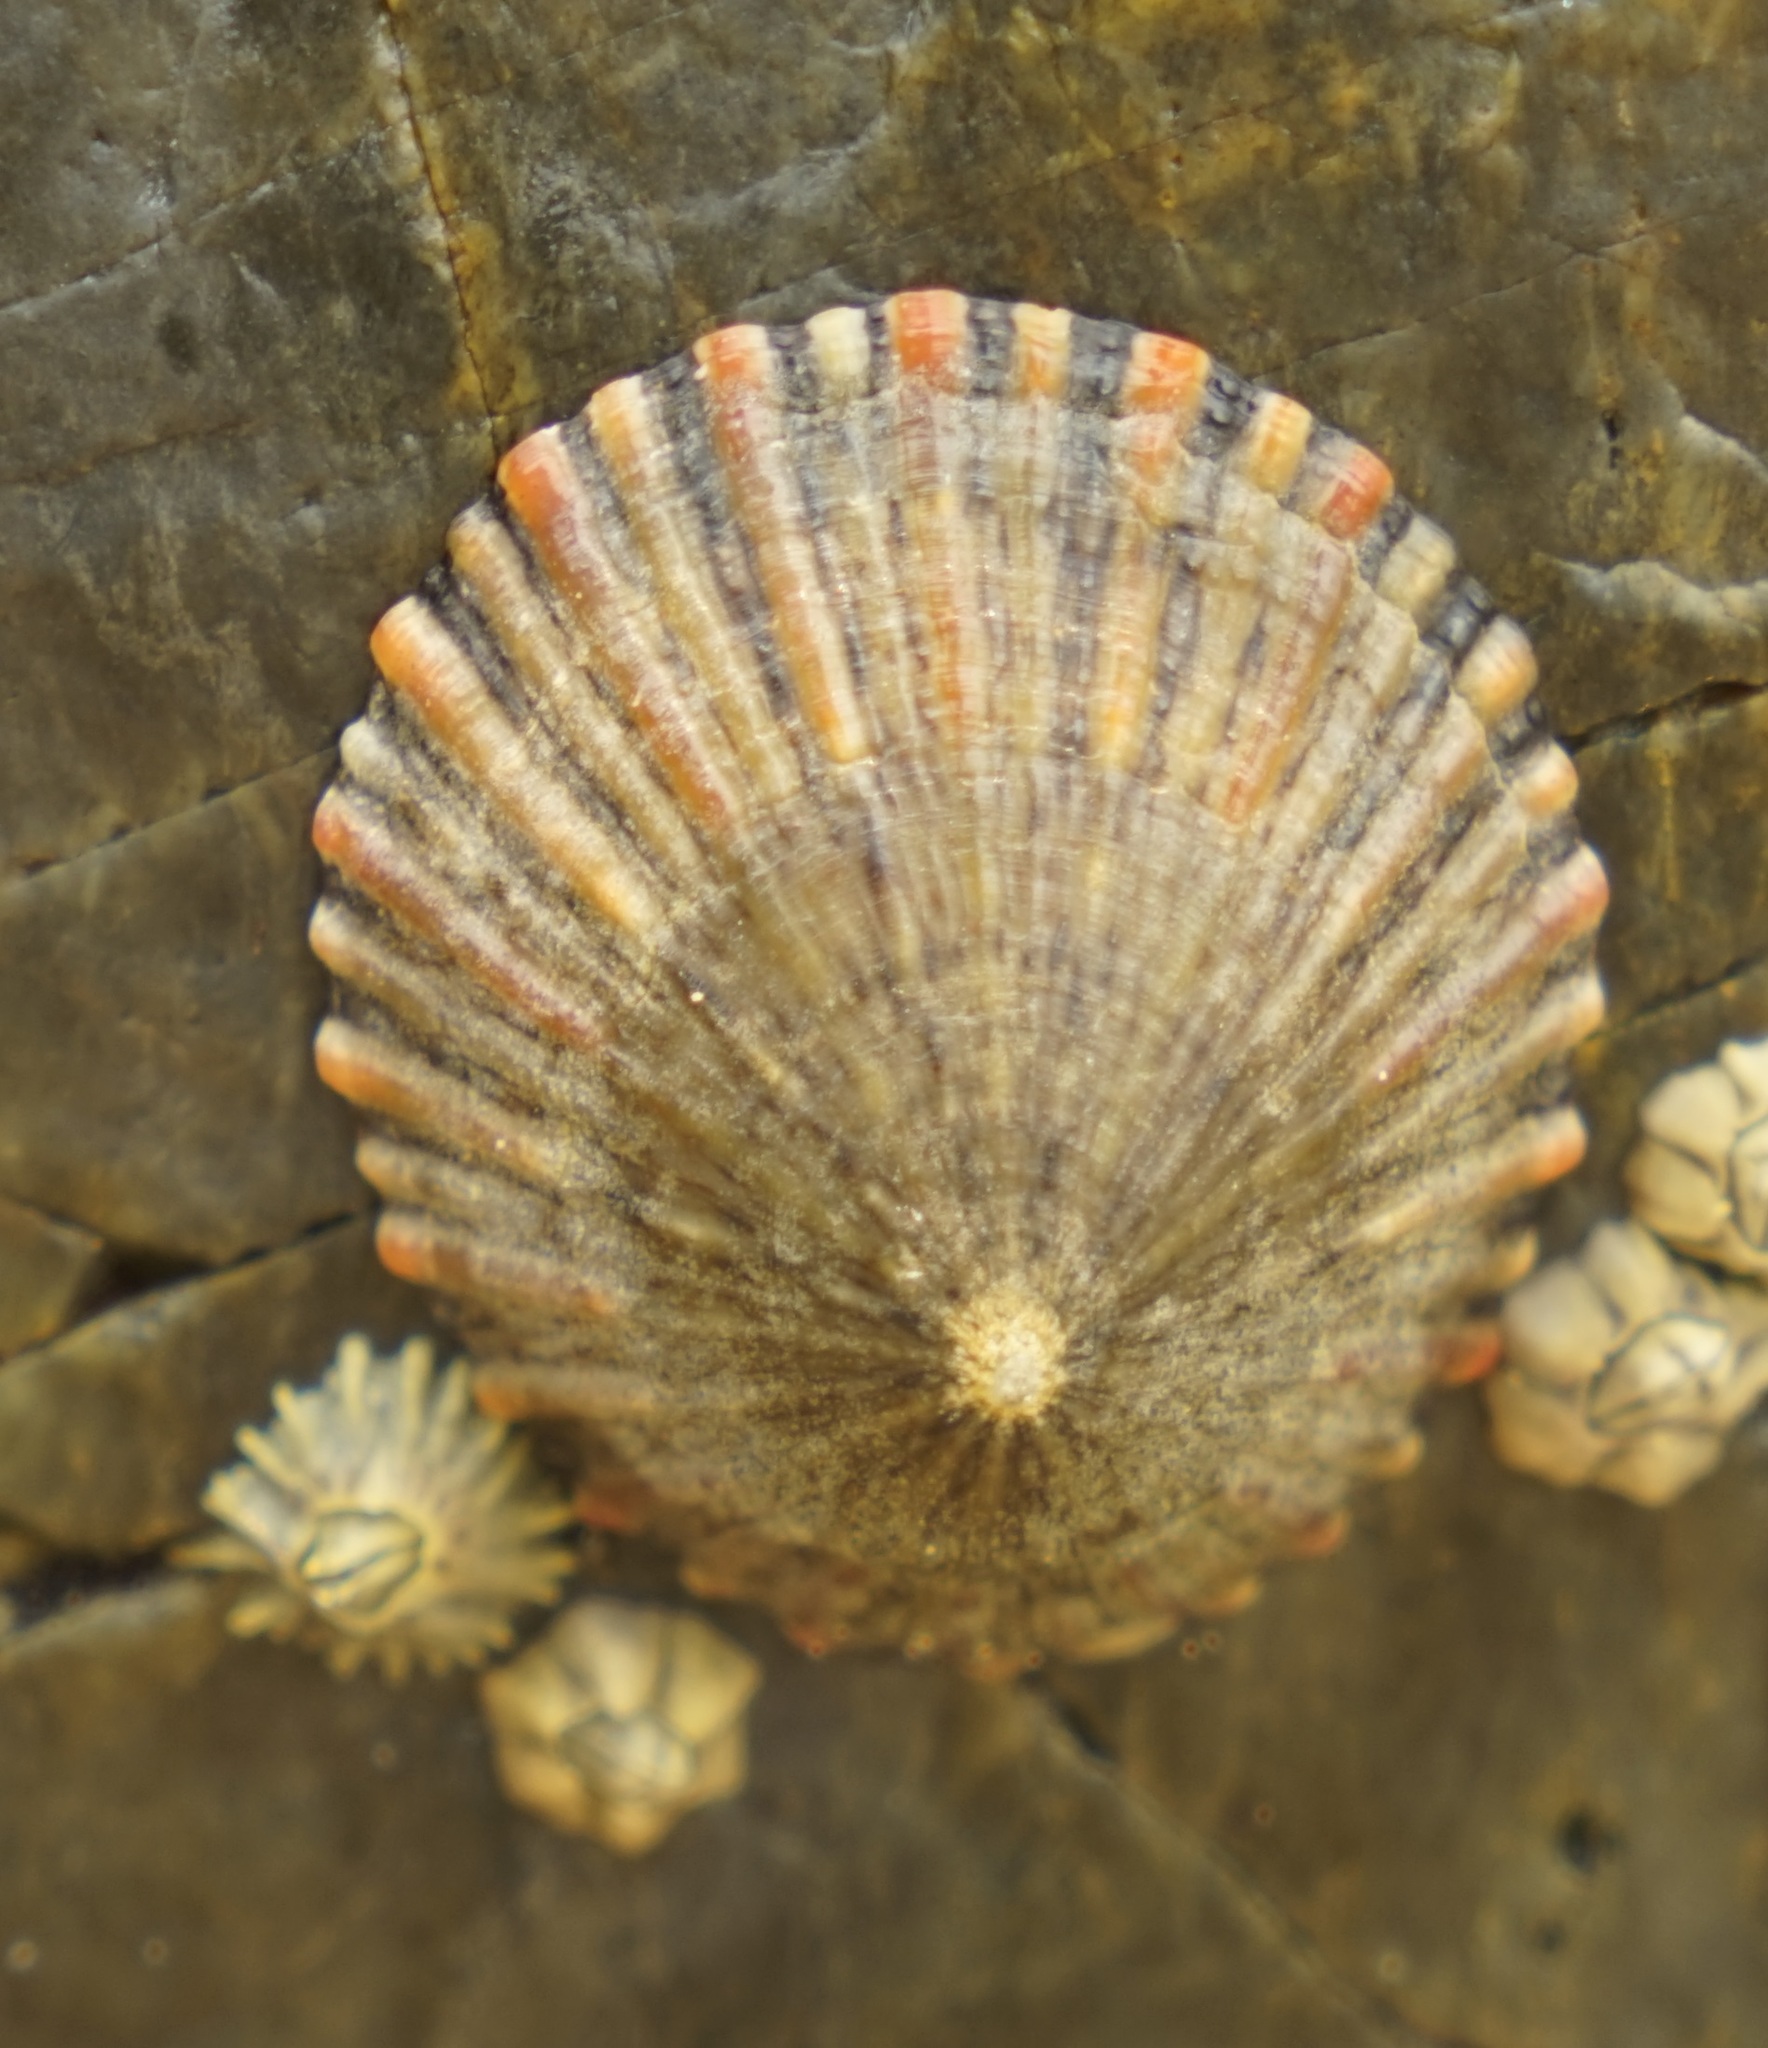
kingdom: Animalia
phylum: Mollusca
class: Gastropoda
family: Nacellidae
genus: Cellana
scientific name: Cellana tramoserica
